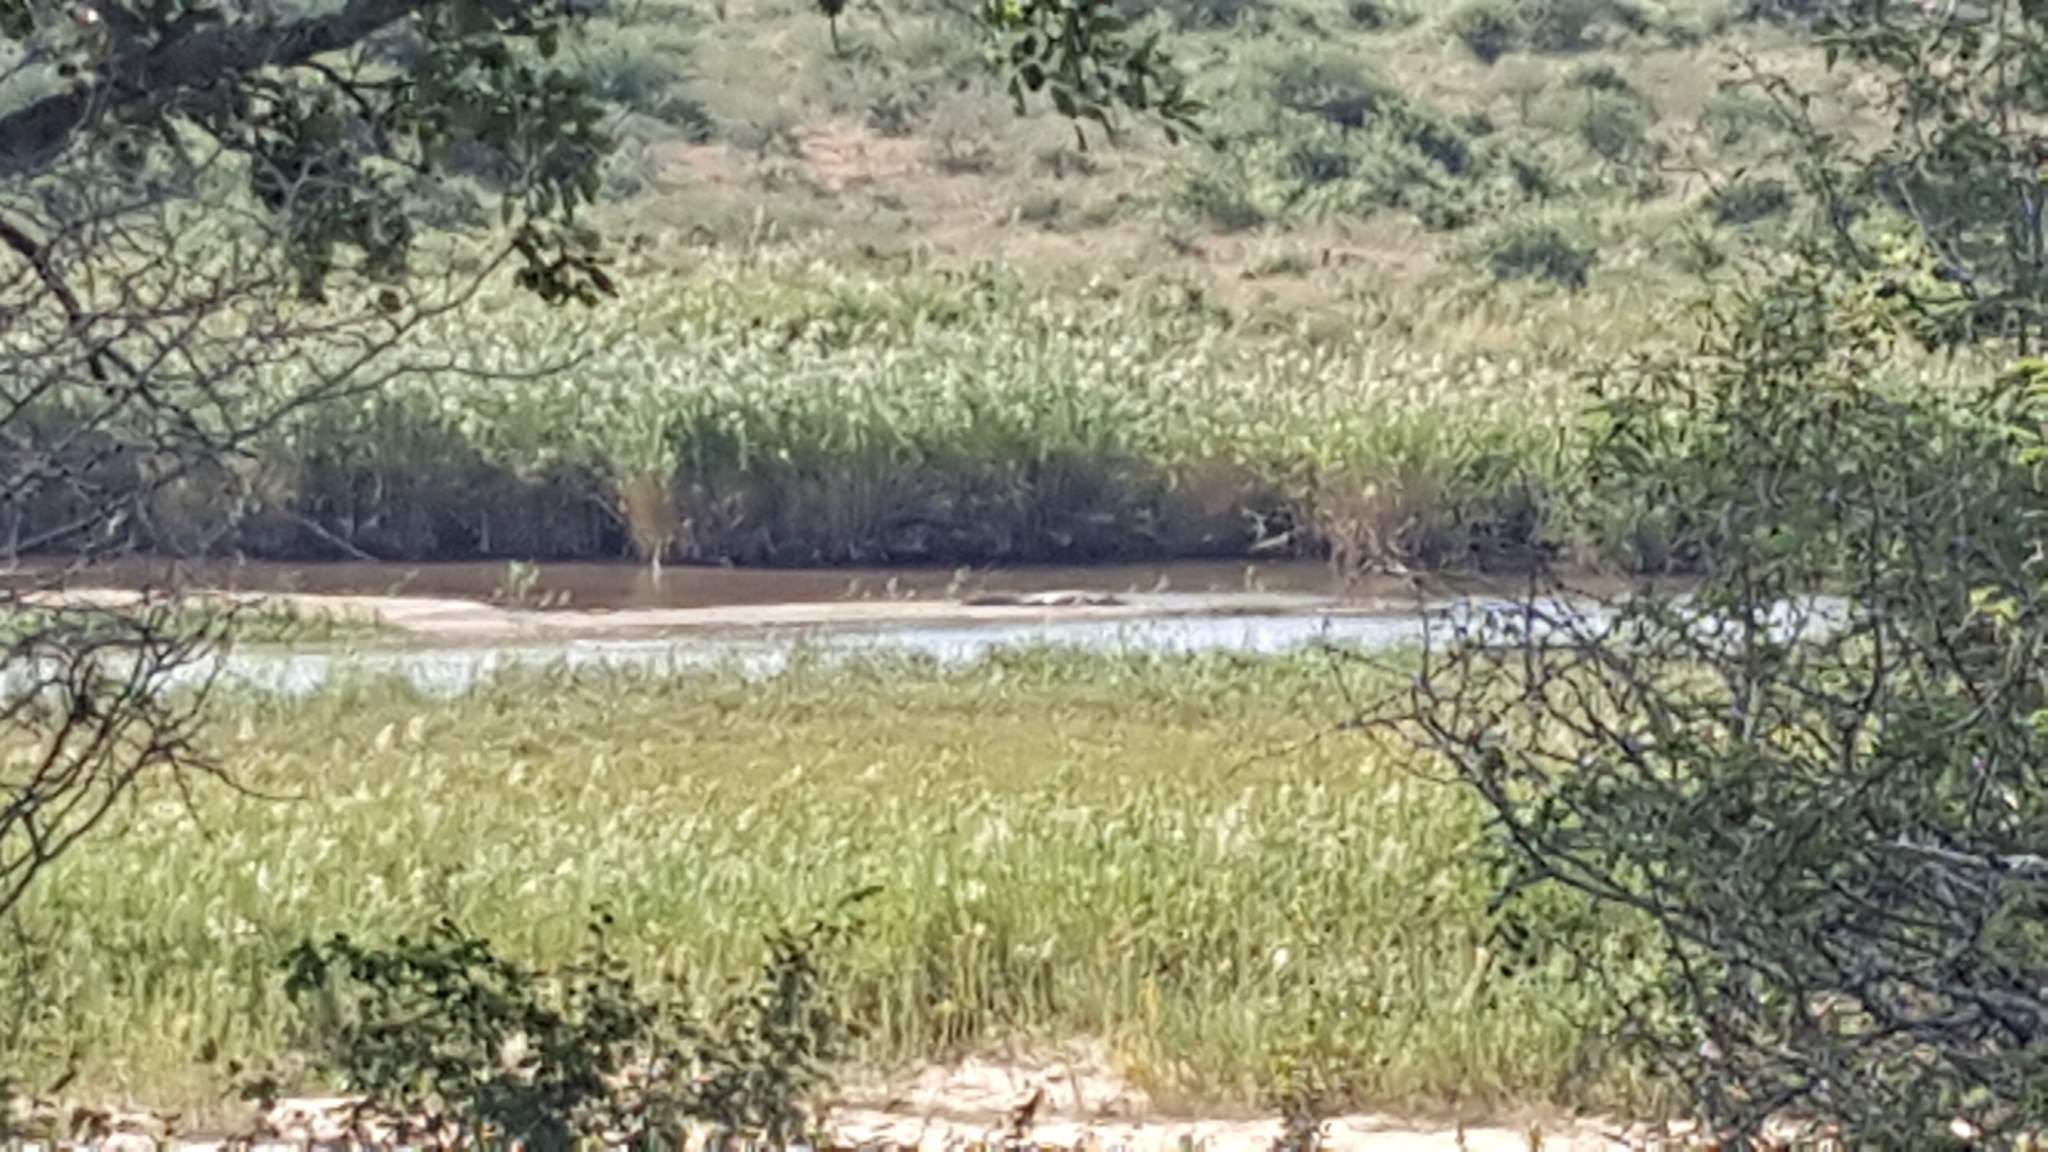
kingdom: Animalia
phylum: Chordata
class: Crocodylia
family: Crocodylidae
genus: Crocodylus
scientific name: Crocodylus niloticus
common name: Nile crocodile
